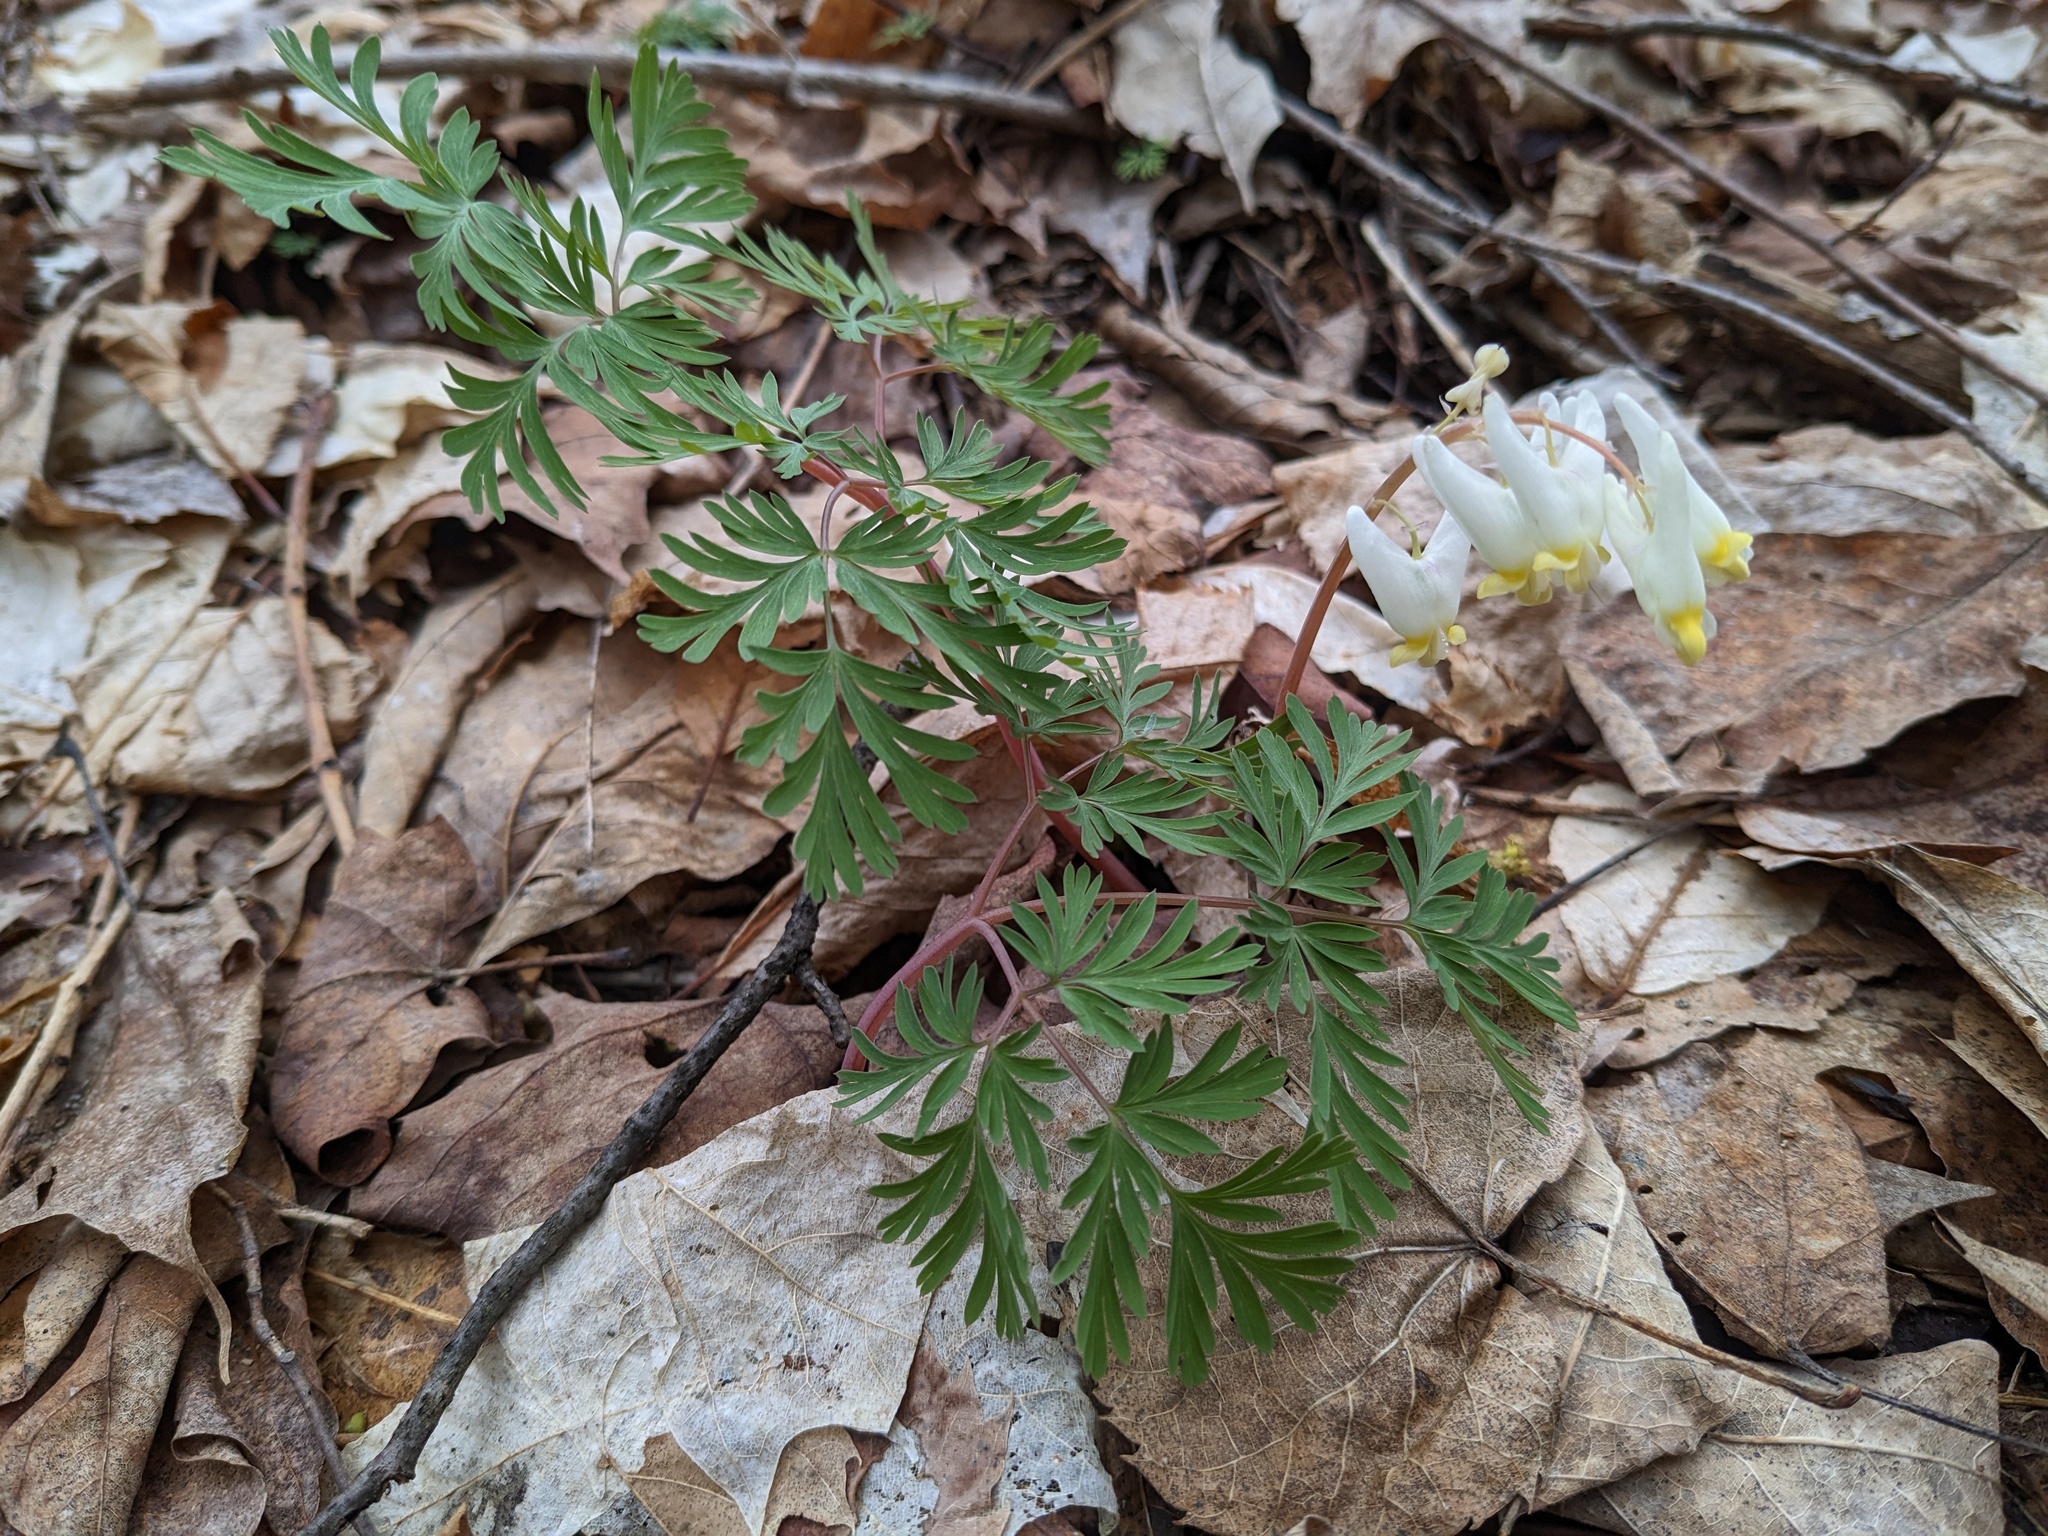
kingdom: Plantae
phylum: Tracheophyta
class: Magnoliopsida
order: Ranunculales
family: Papaveraceae
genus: Dicentra
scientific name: Dicentra cucullaria
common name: Dutchman's breeches
